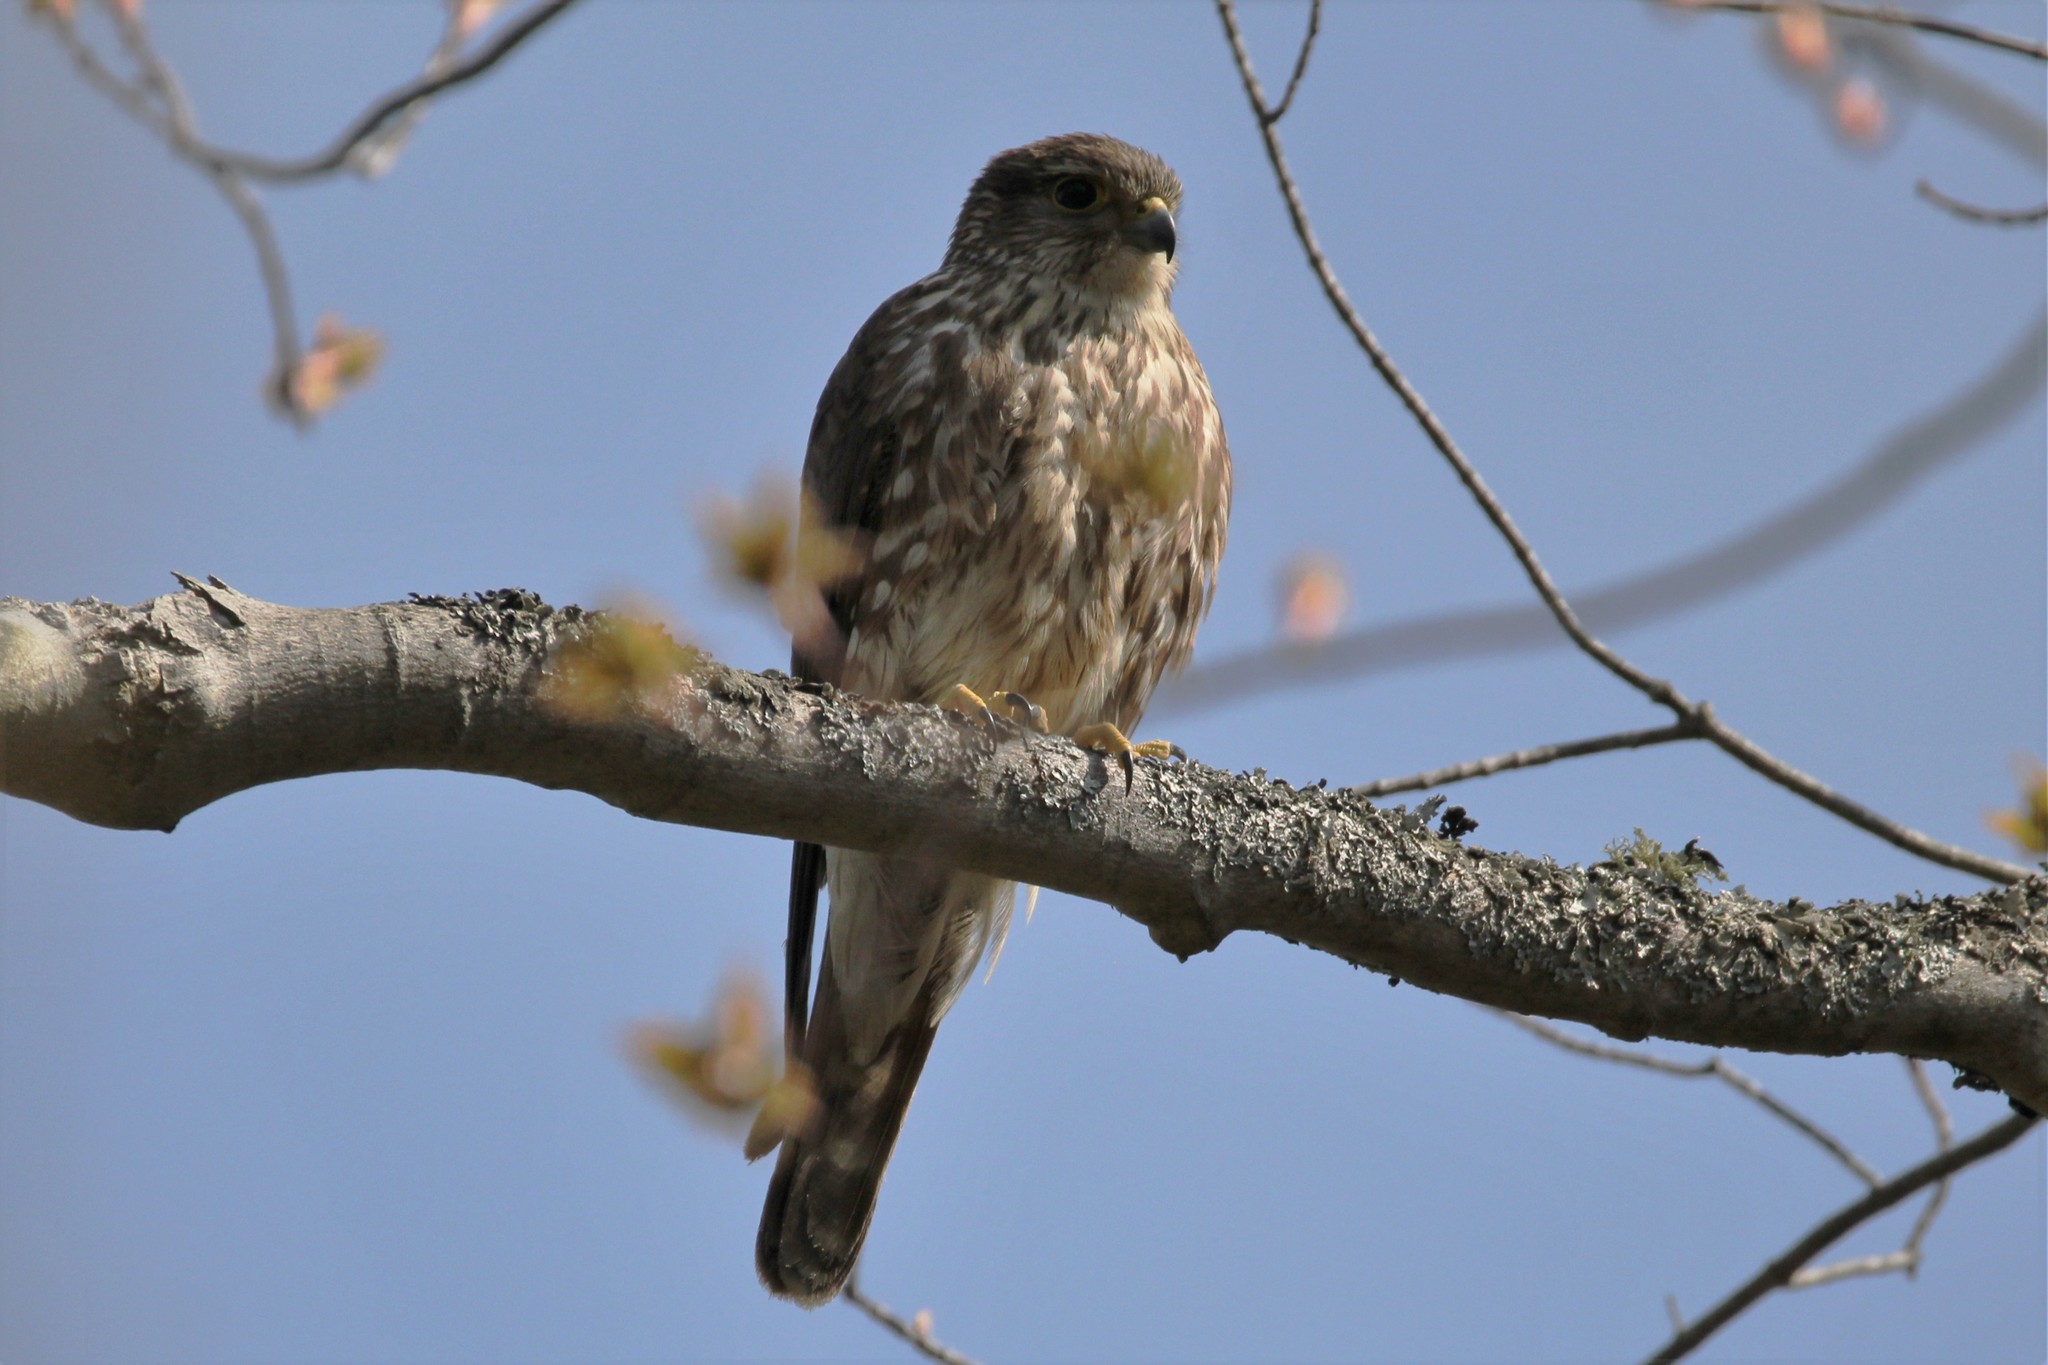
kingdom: Animalia
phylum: Chordata
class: Aves
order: Falconiformes
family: Falconidae
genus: Falco
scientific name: Falco columbarius
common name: Merlin
